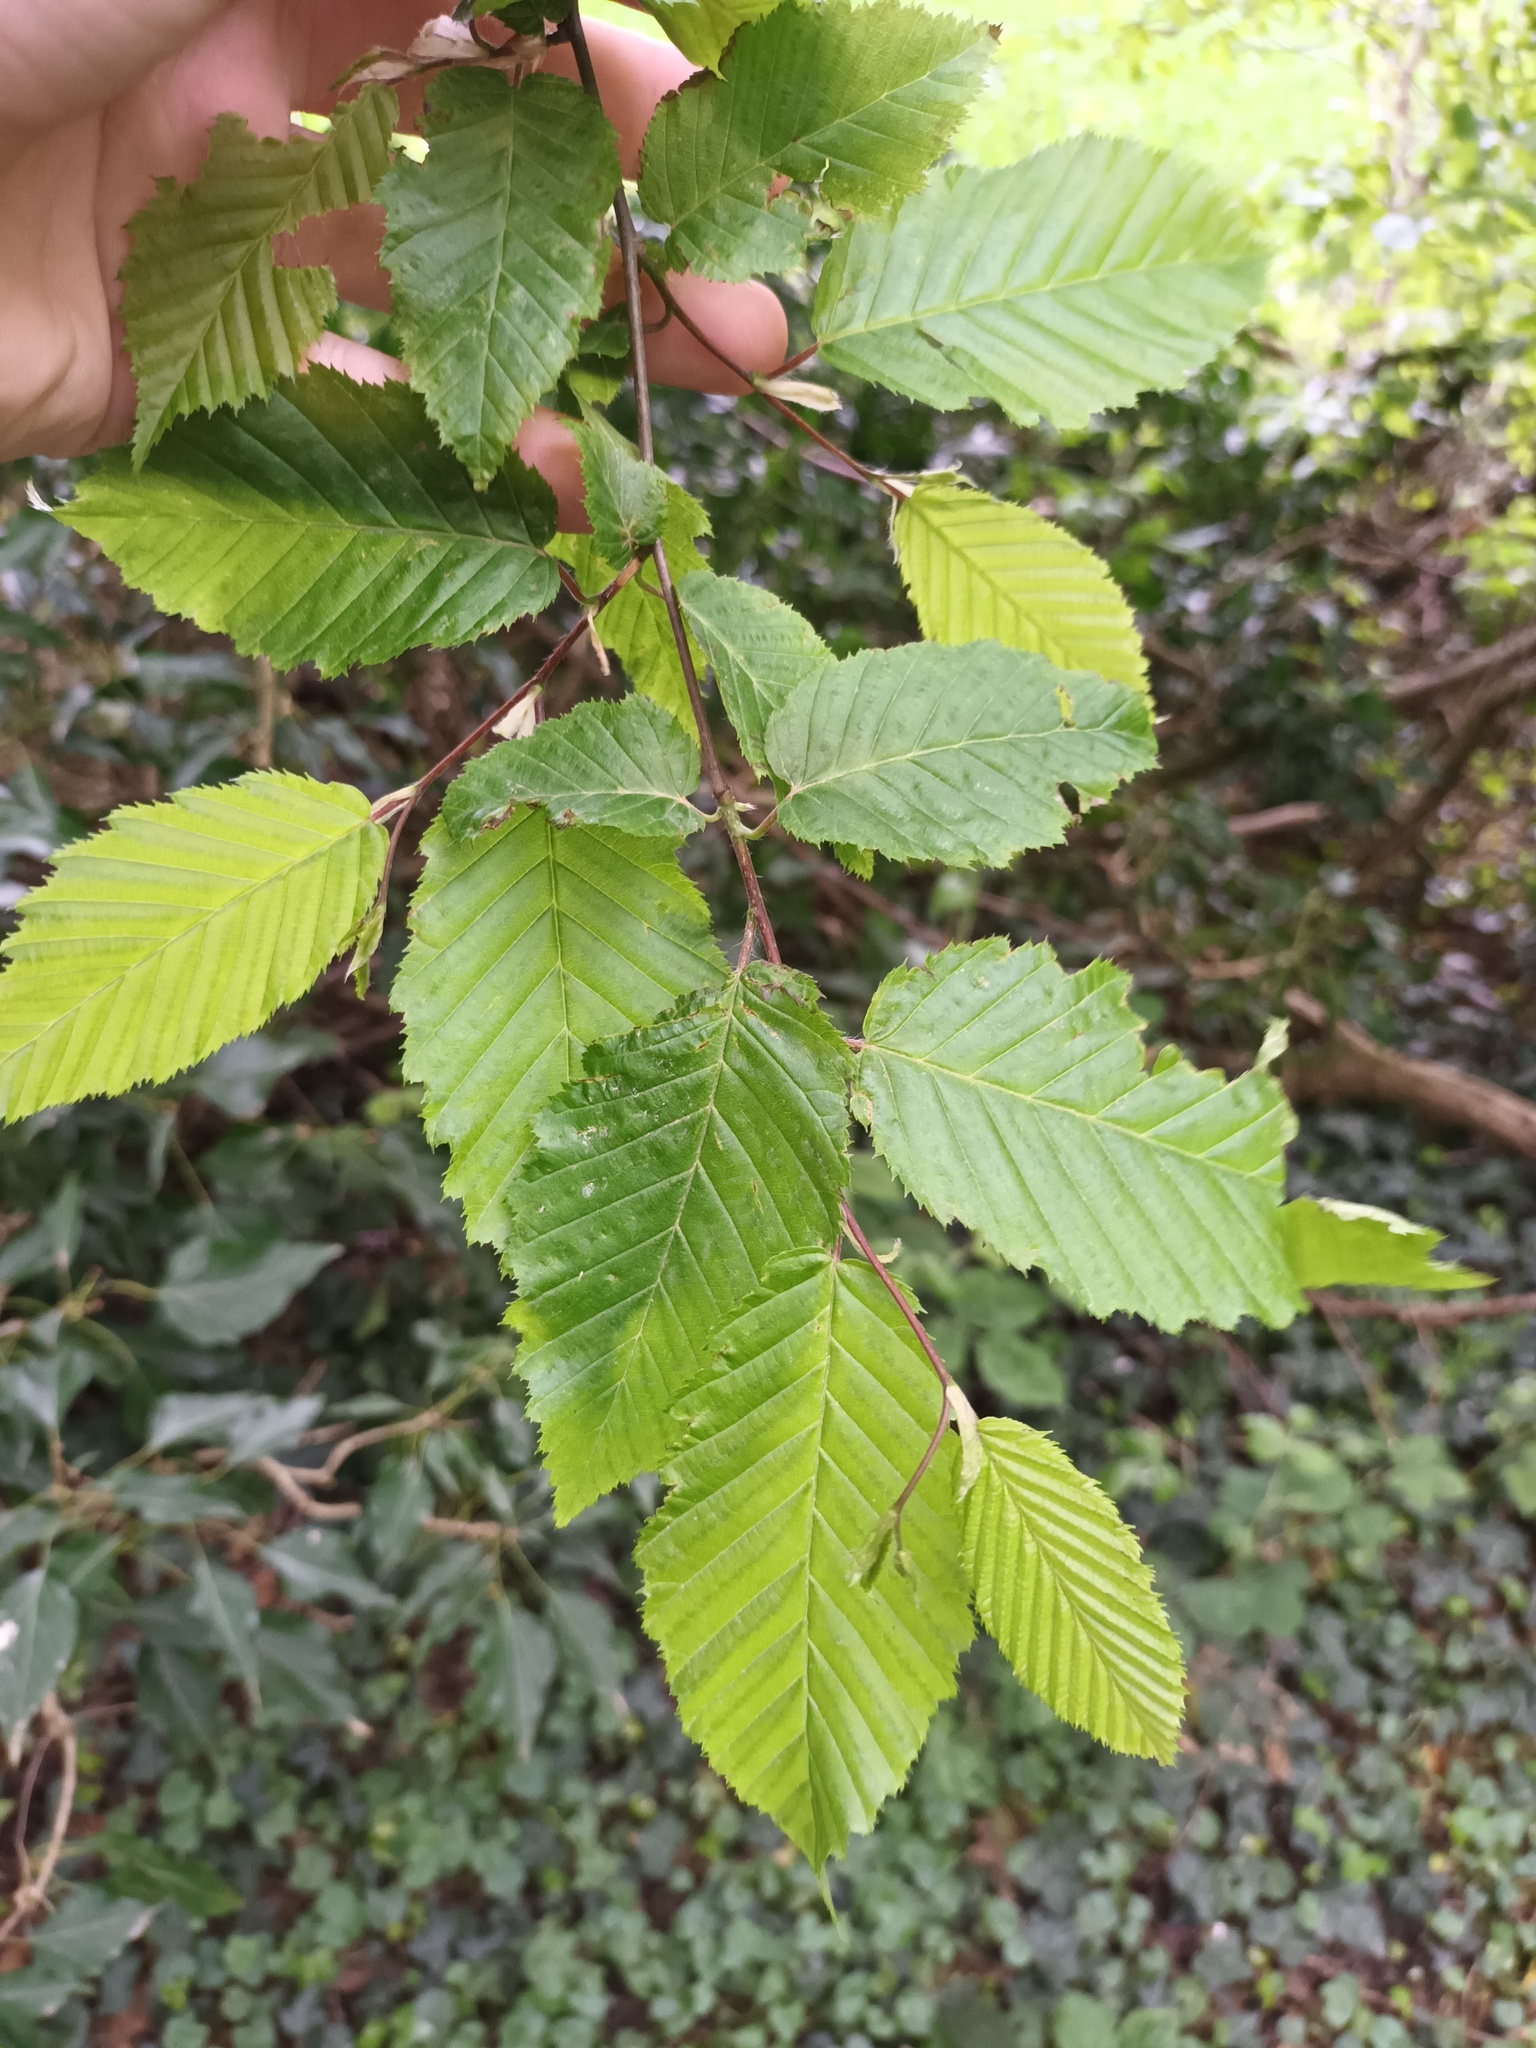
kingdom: Plantae
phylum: Tracheophyta
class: Magnoliopsida
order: Fagales
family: Betulaceae
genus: Carpinus
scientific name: Carpinus betulus
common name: Hornbeam
